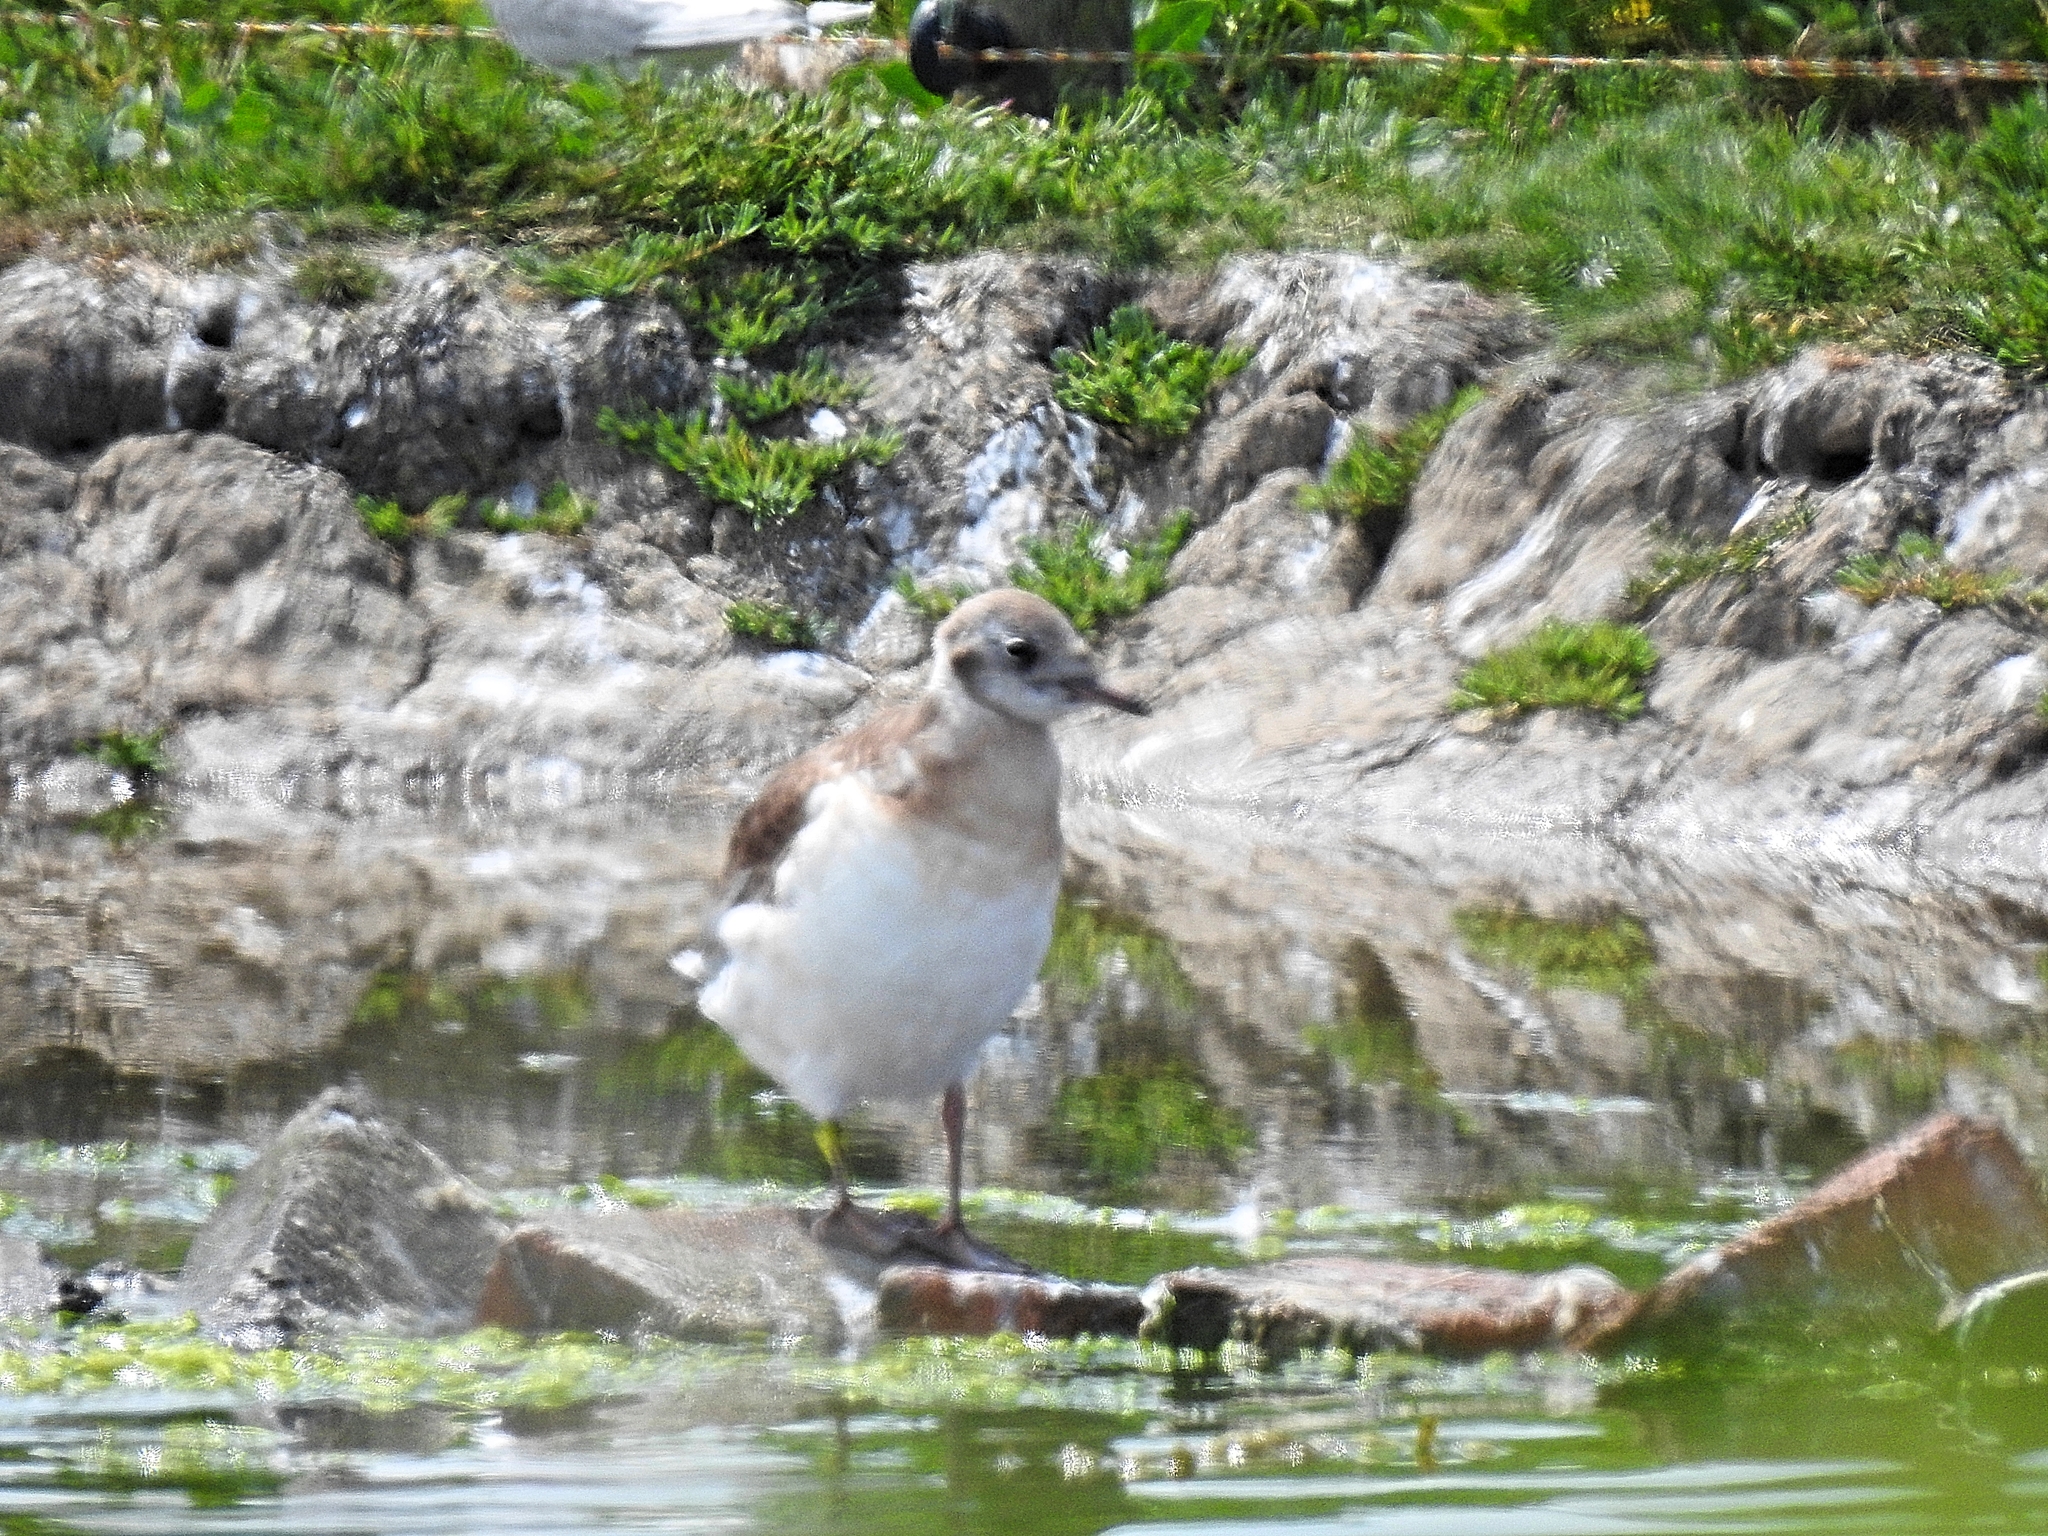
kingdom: Animalia
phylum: Chordata
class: Aves
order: Charadriiformes
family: Laridae
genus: Chroicocephalus
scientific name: Chroicocephalus ridibundus
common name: Black-headed gull
